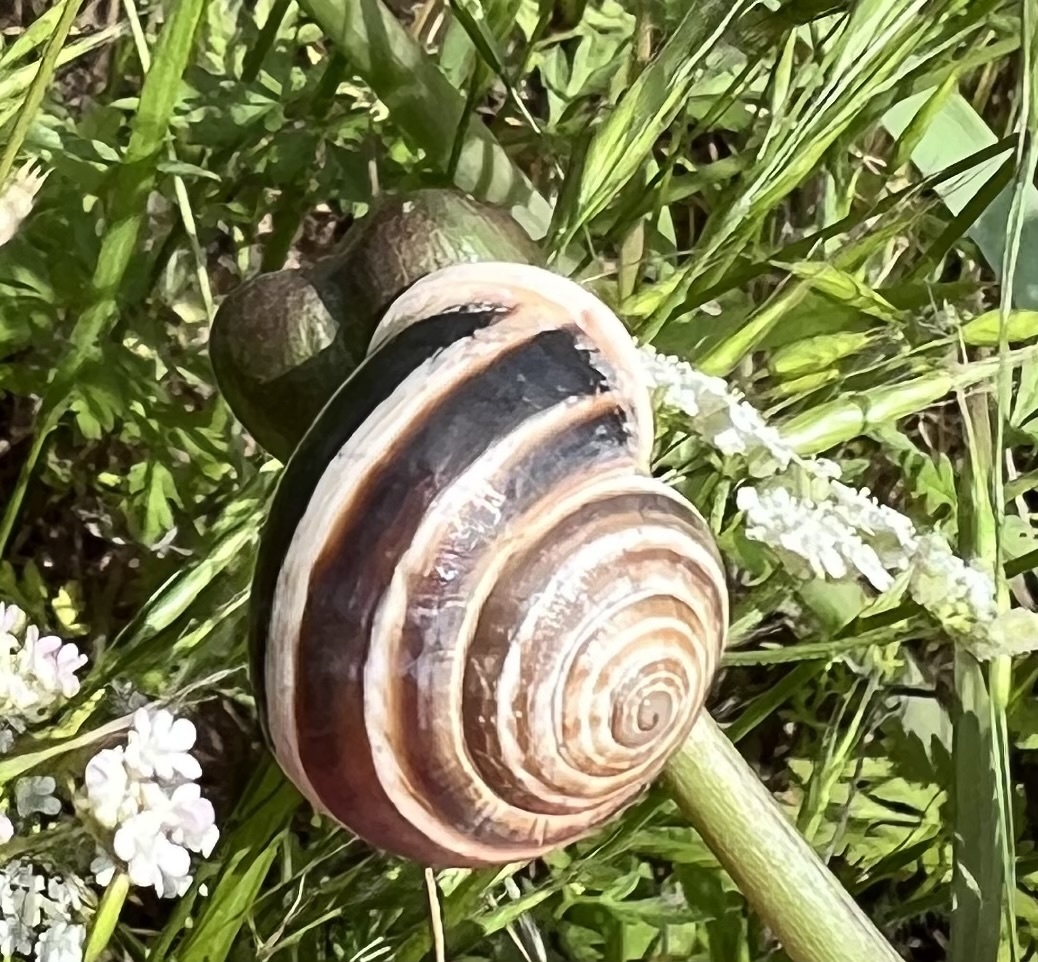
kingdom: Animalia
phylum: Mollusca
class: Gastropoda
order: Stylommatophora
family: Helicidae
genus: Otala
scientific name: Otala lactea
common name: Milk snail
